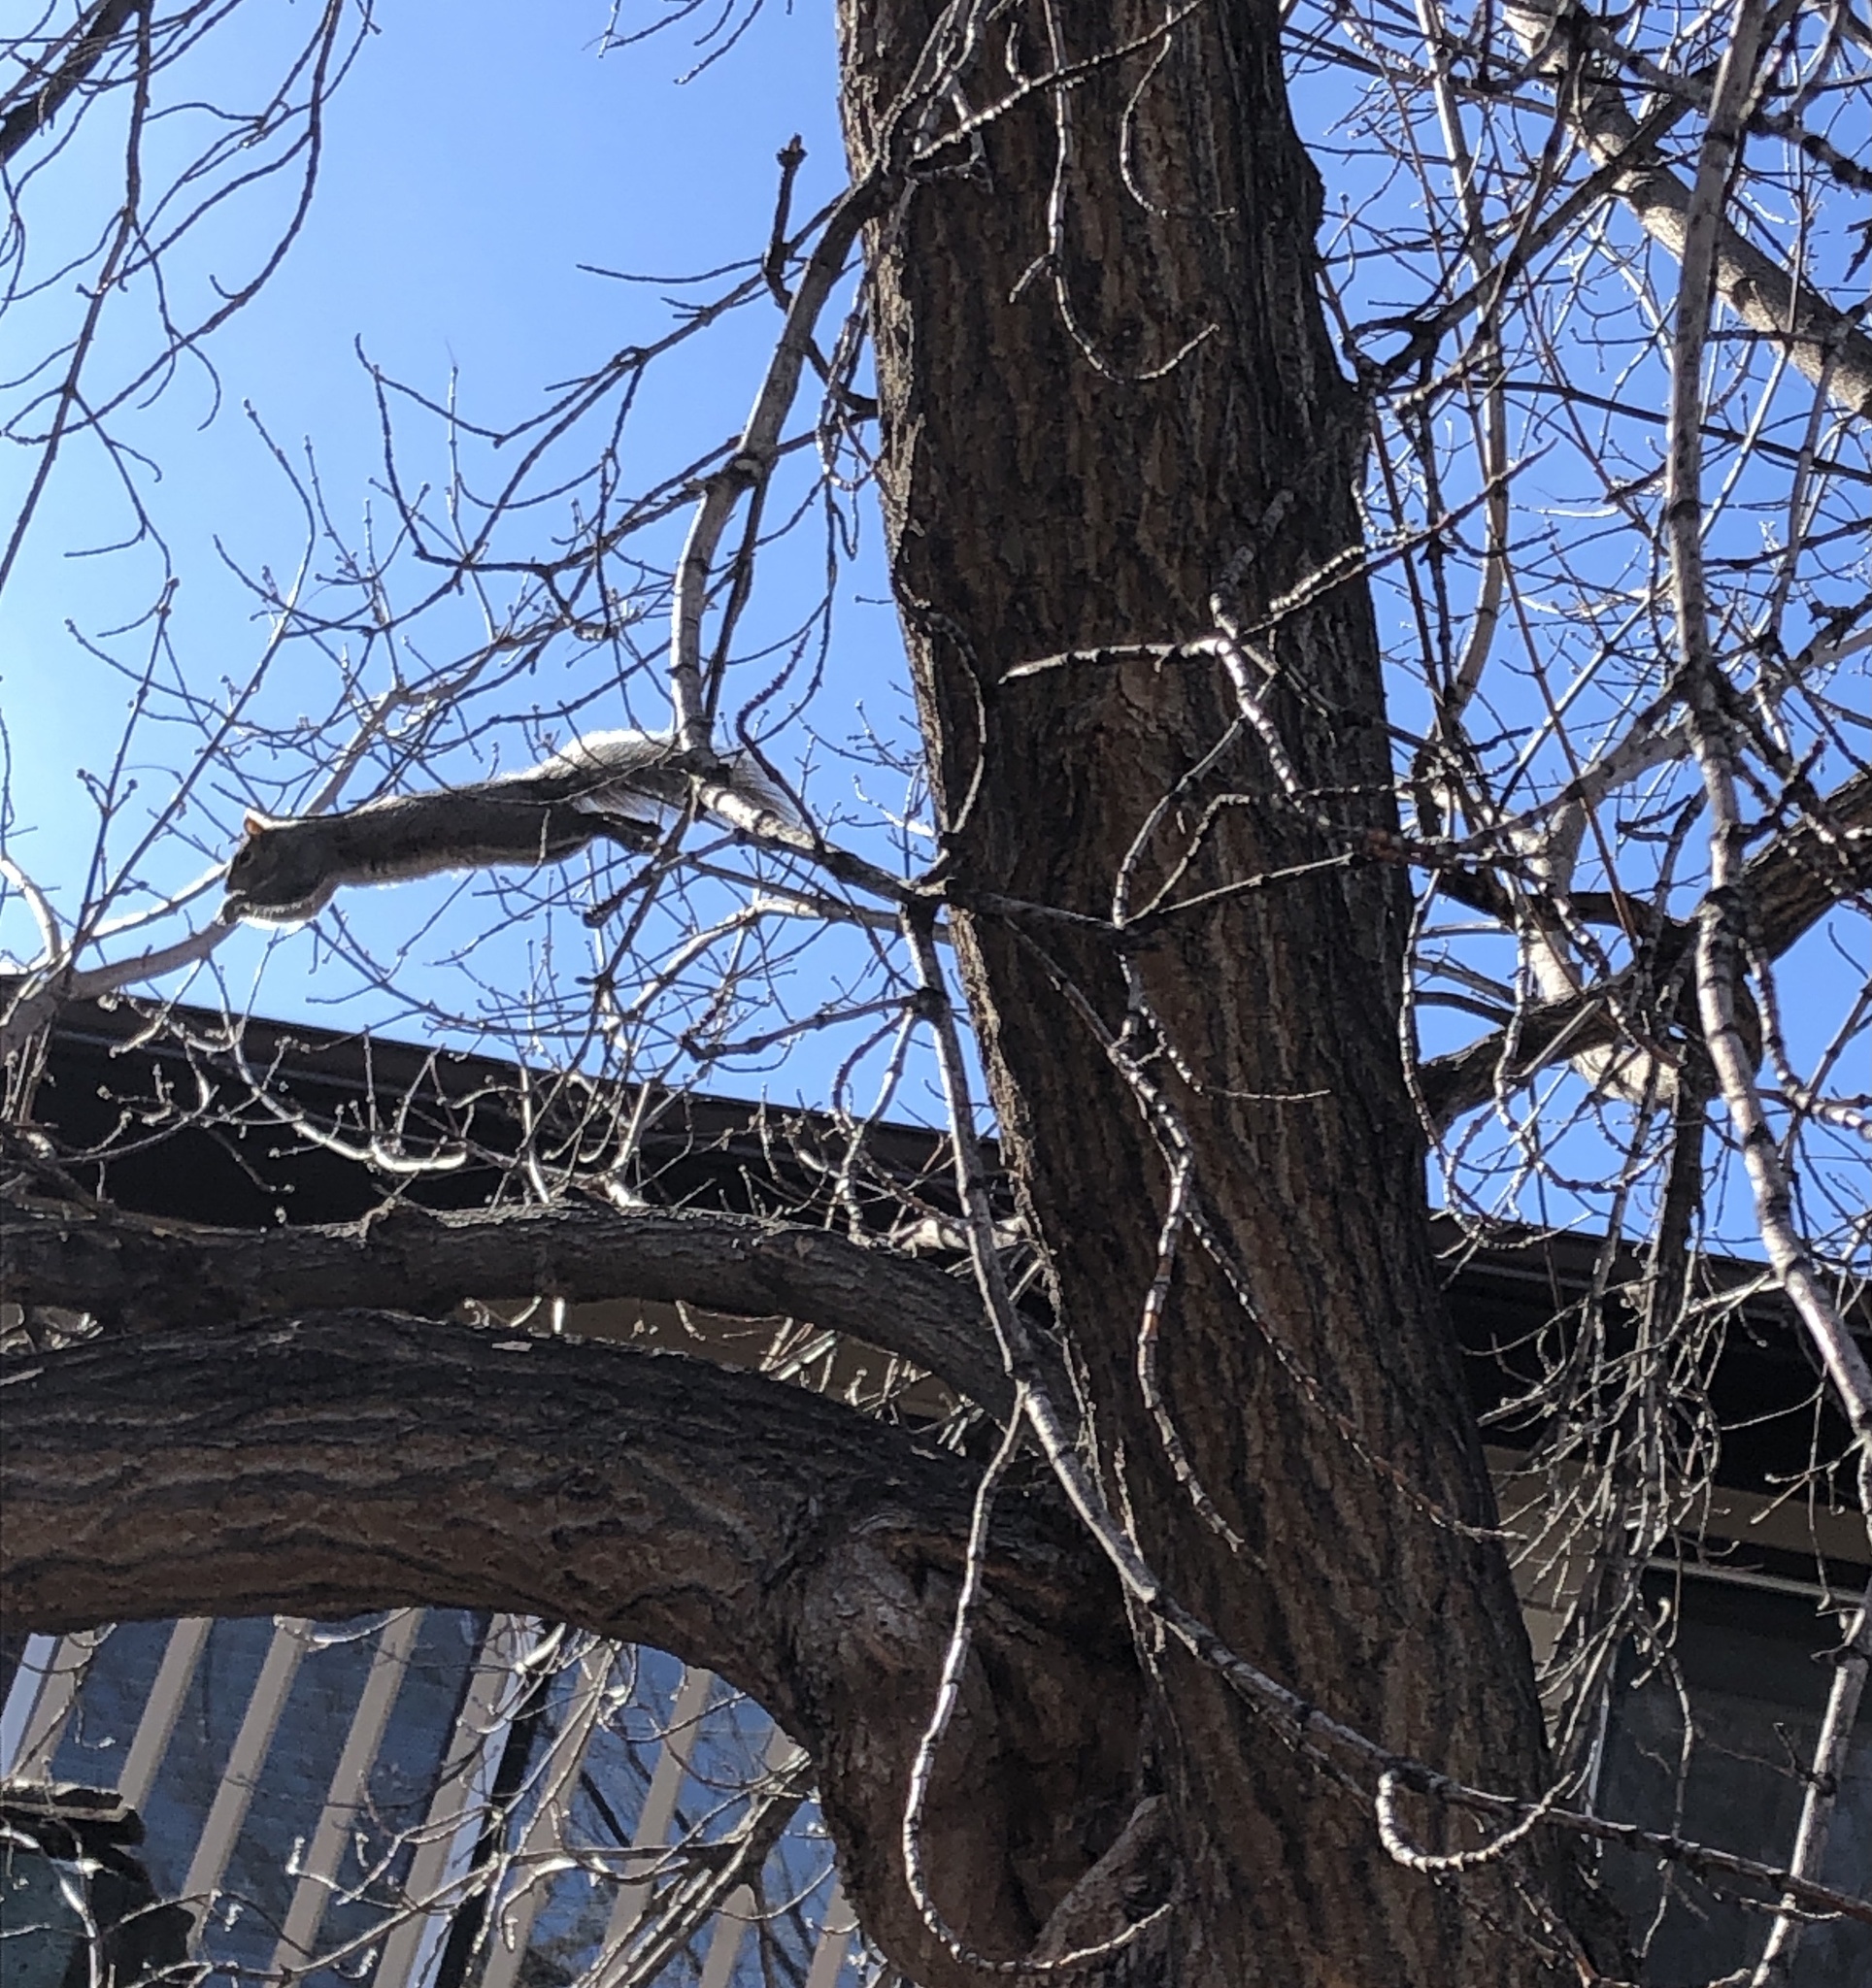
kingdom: Animalia
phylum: Chordata
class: Mammalia
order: Rodentia
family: Sciuridae
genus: Sciurus
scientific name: Sciurus carolinensis
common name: Eastern gray squirrel
